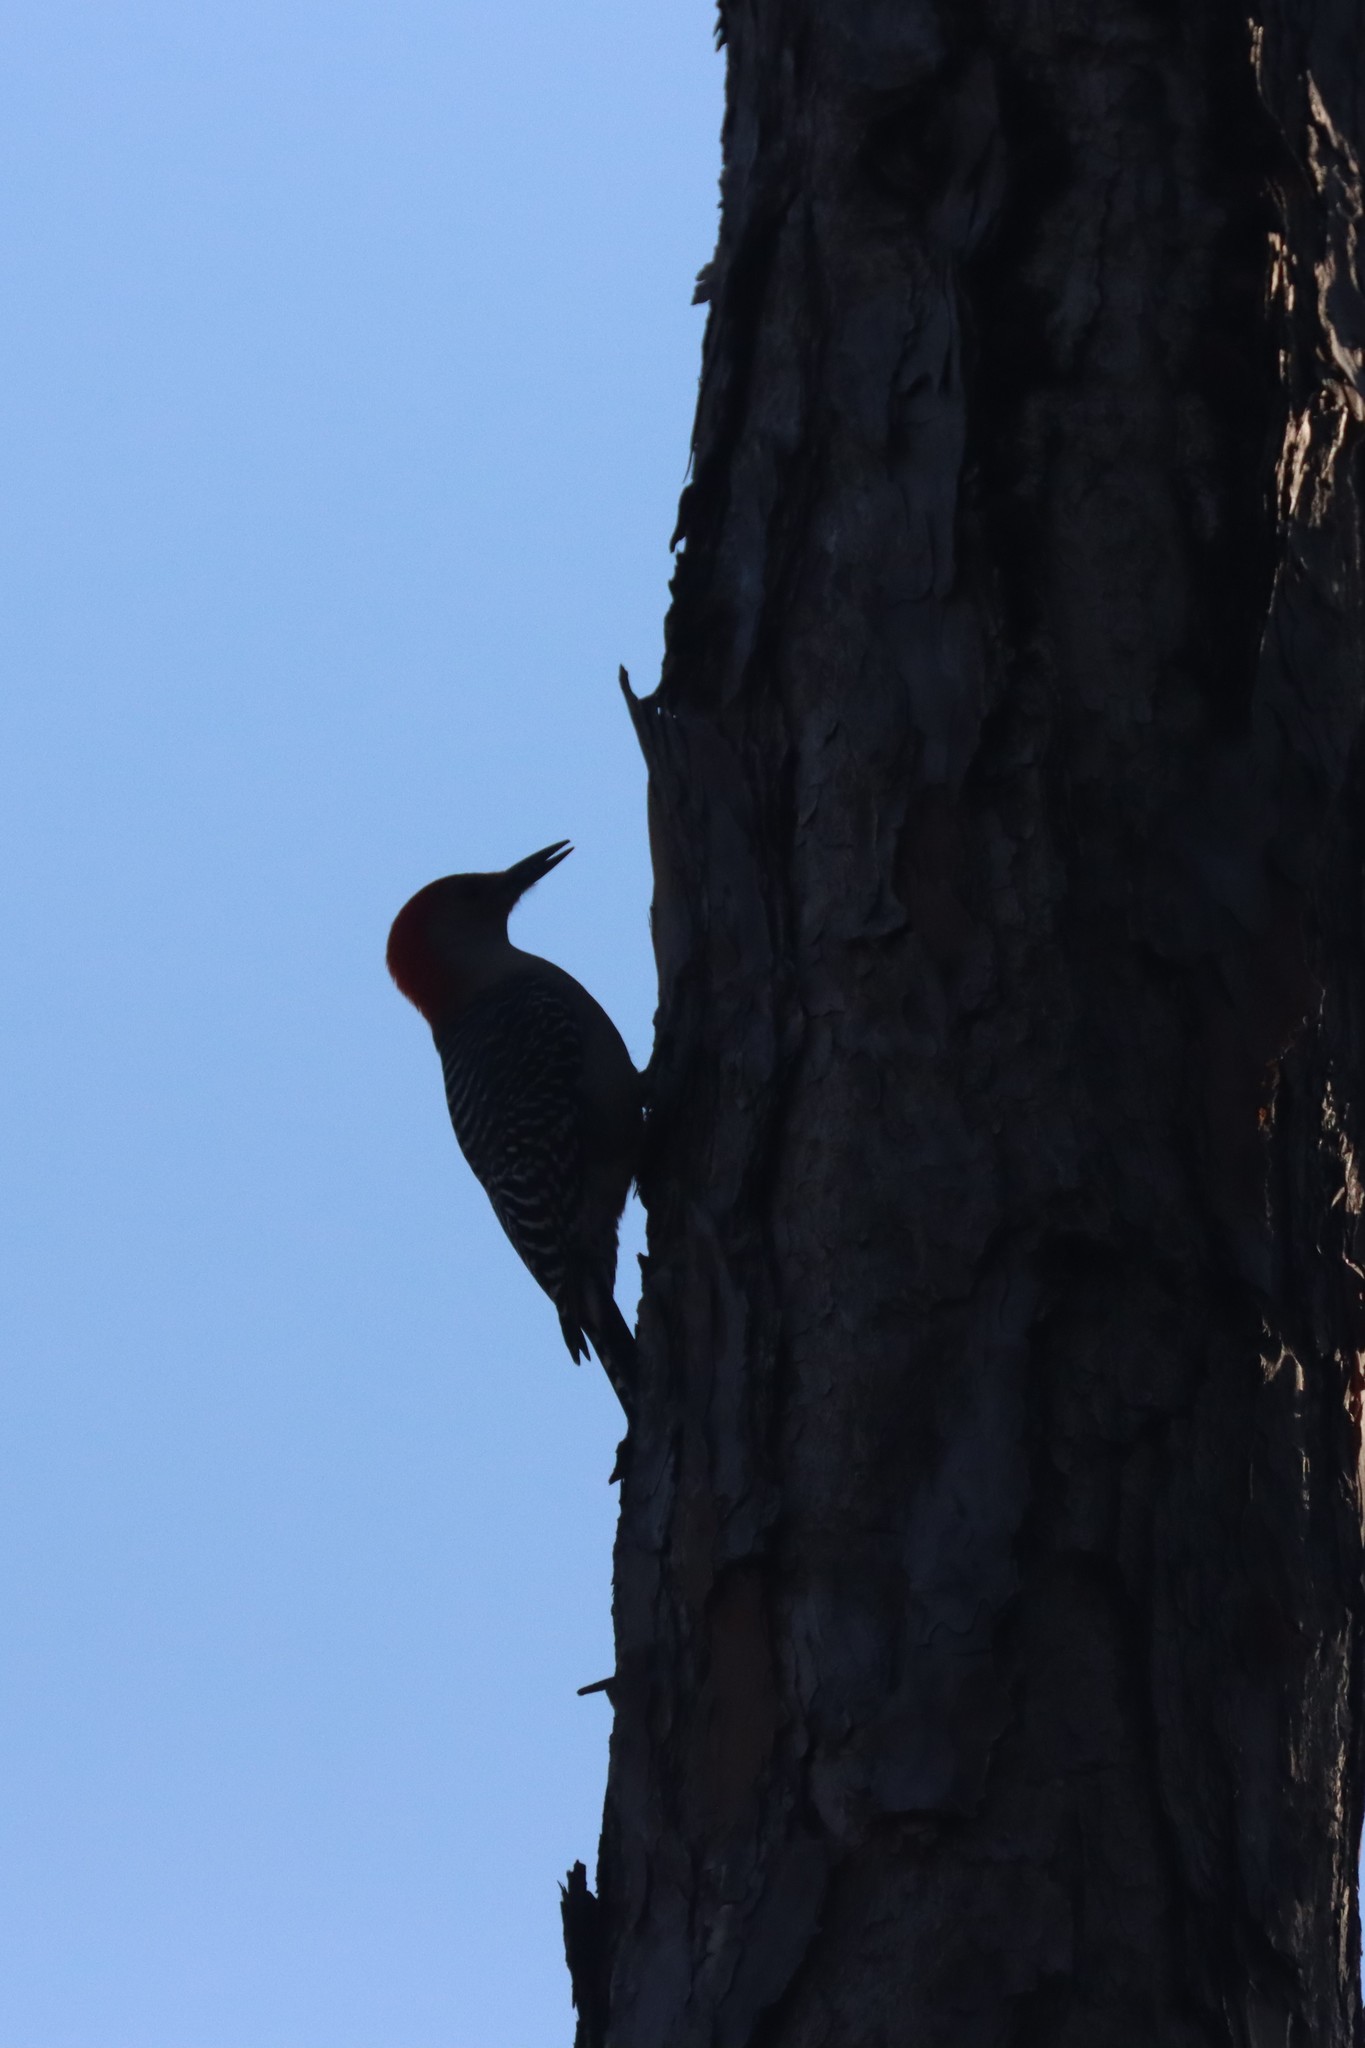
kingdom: Animalia
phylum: Chordata
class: Aves
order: Piciformes
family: Picidae
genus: Melanerpes
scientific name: Melanerpes carolinus
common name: Red-bellied woodpecker
